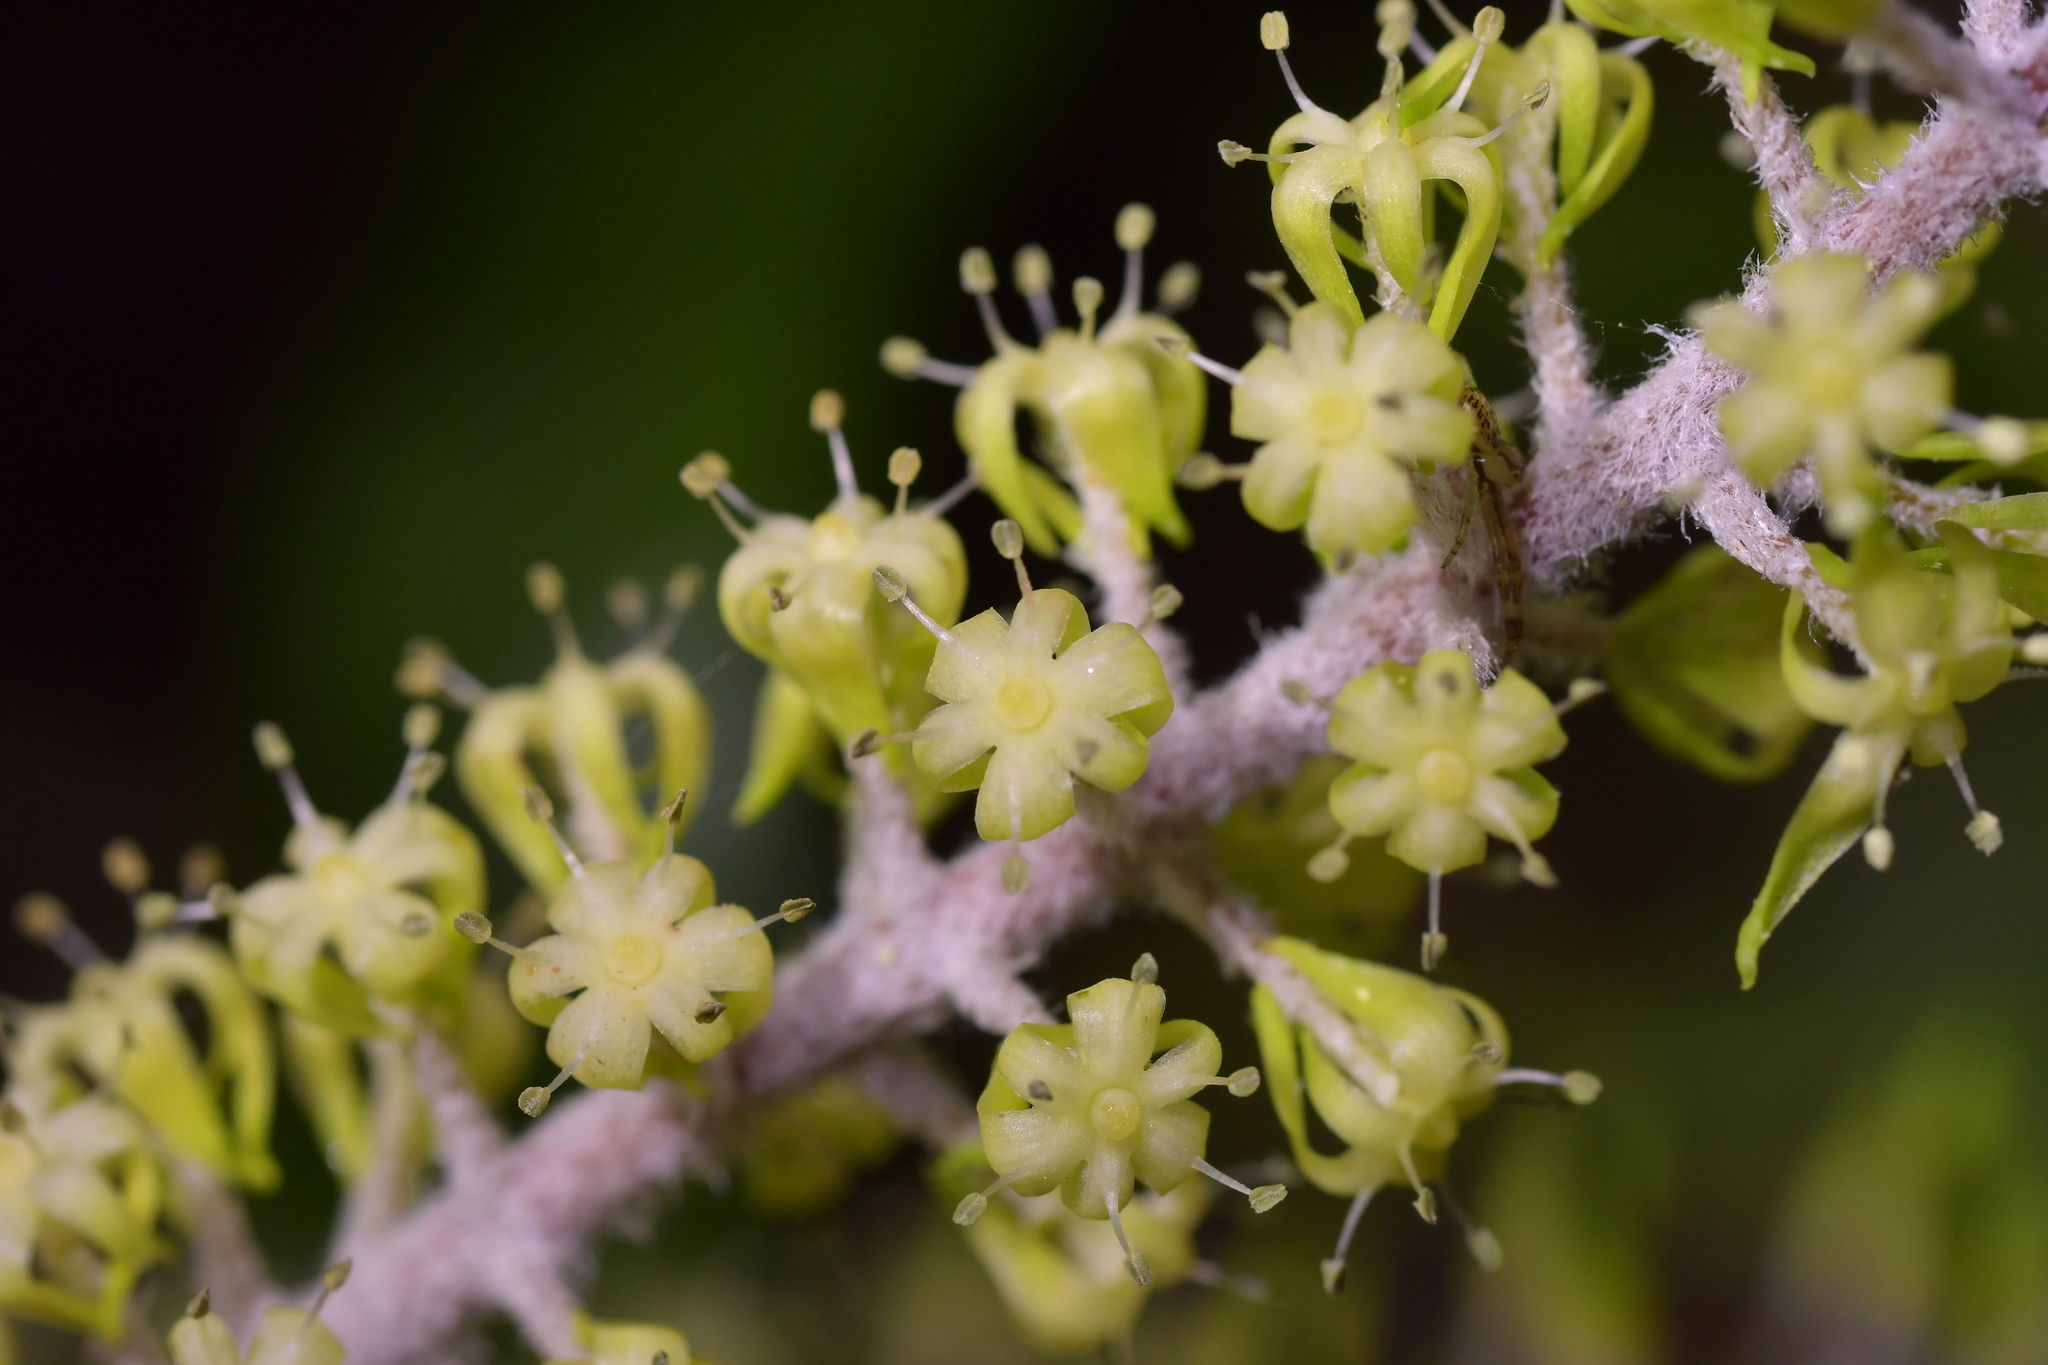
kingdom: Plantae
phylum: Tracheophyta
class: Liliopsida
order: Asparagales
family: Asteliaceae
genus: Astelia
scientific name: Astelia fragrans
